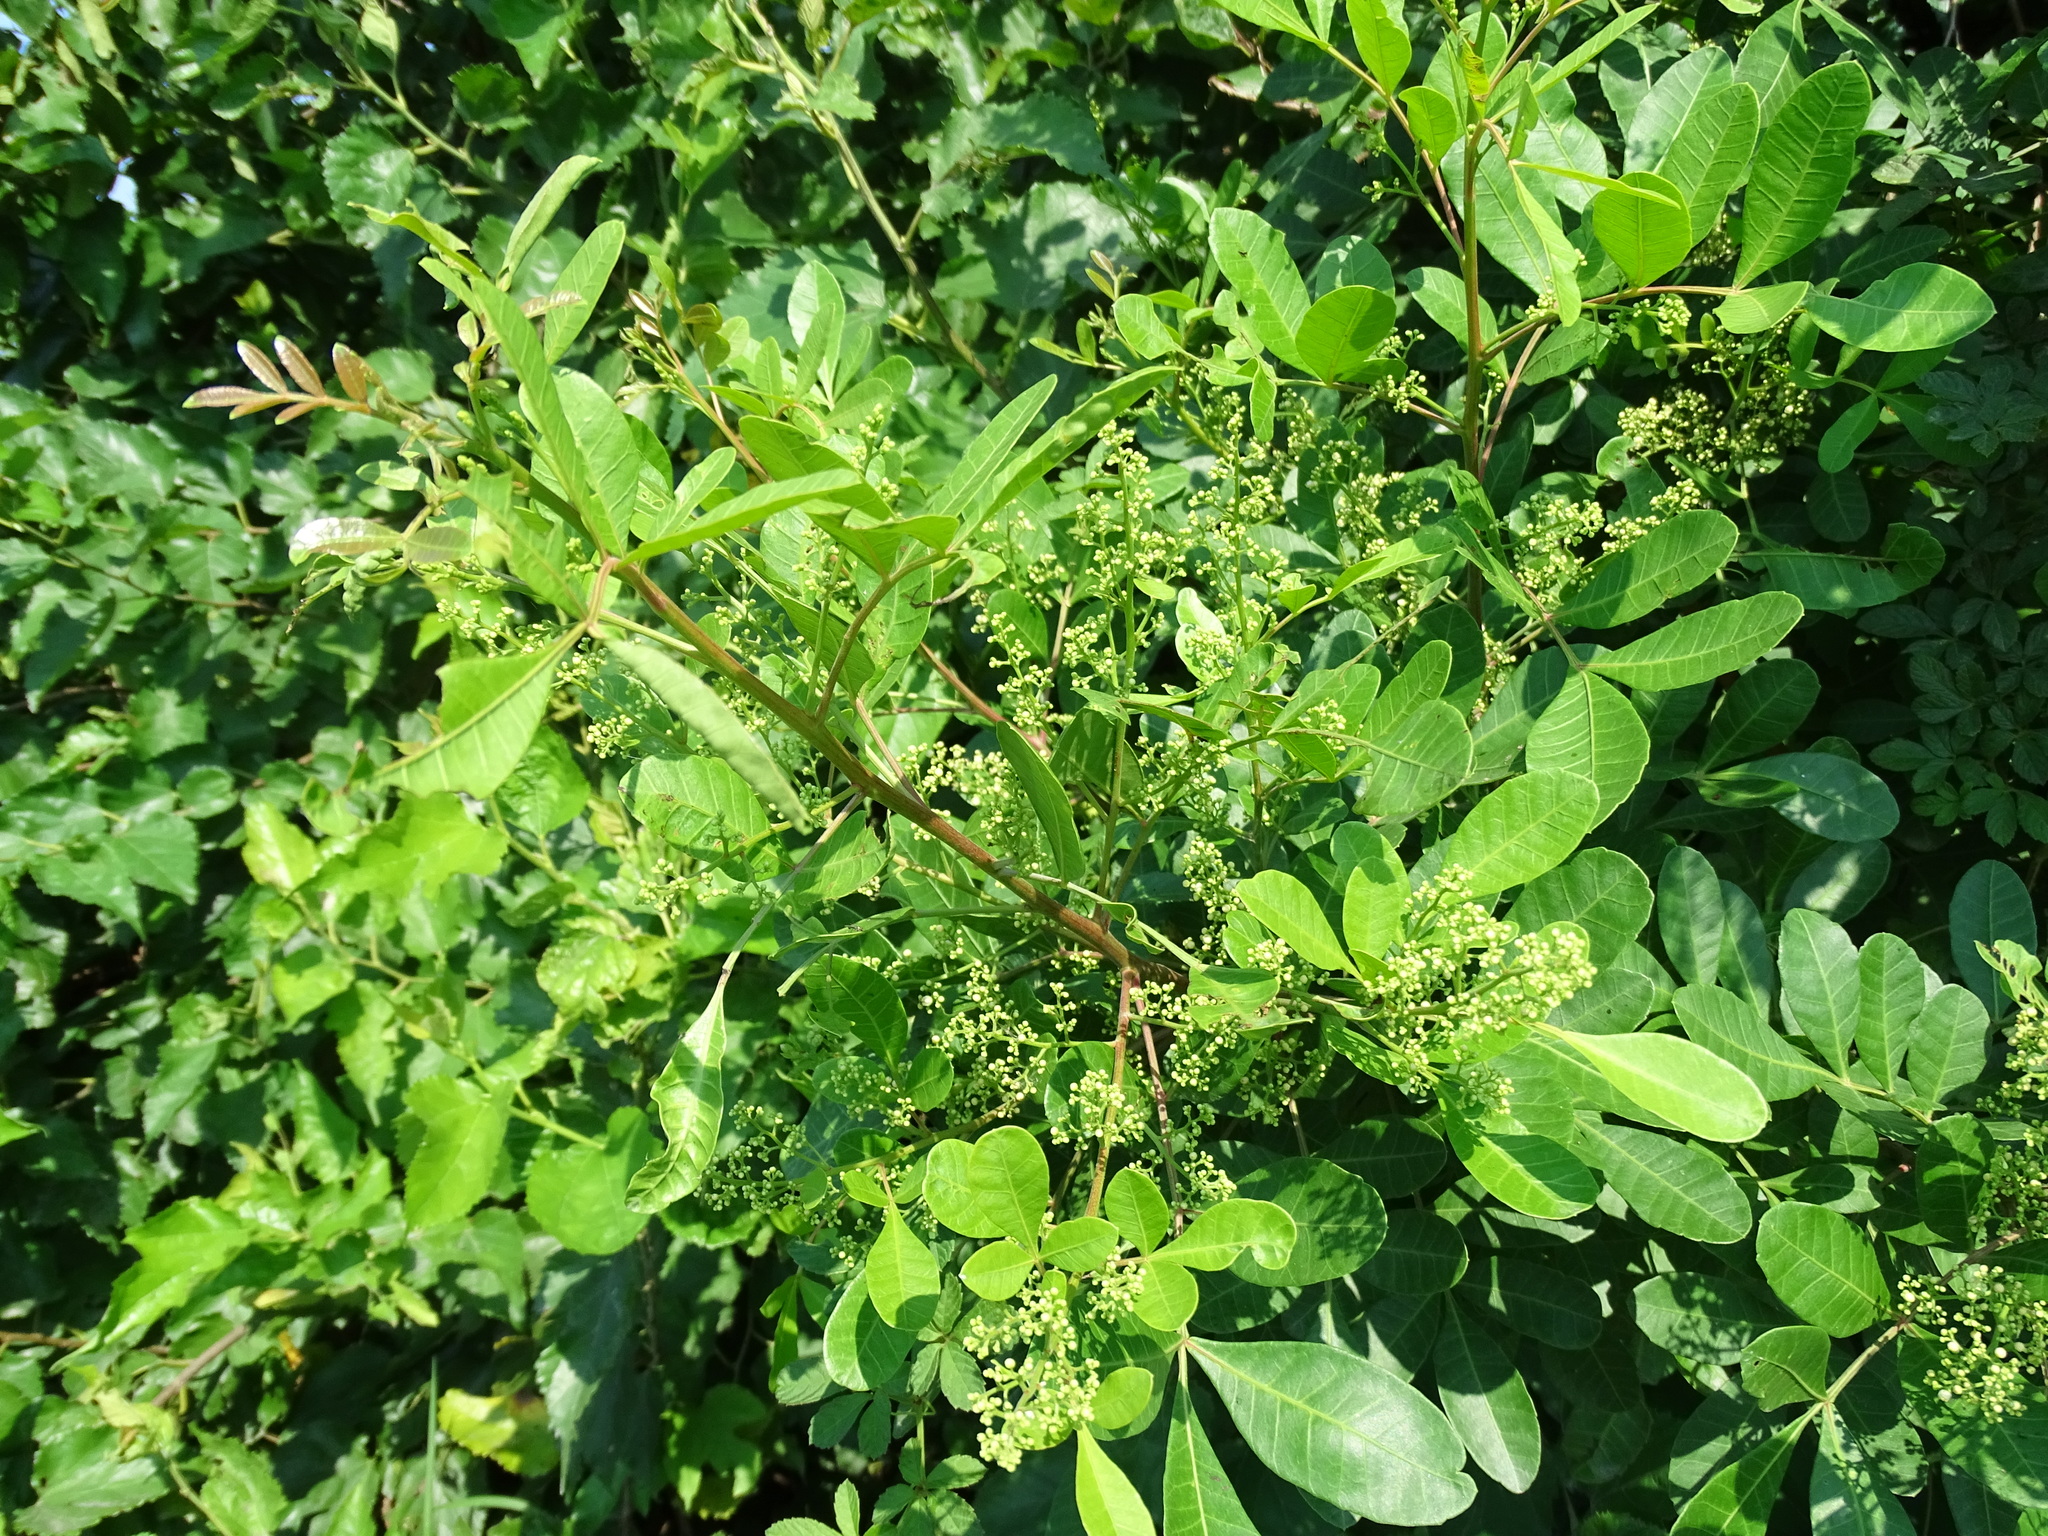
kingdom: Plantae
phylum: Tracheophyta
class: Magnoliopsida
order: Sapindales
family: Anacardiaceae
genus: Schinus
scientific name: Schinus terebinthifolia
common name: Brazilian peppertree
